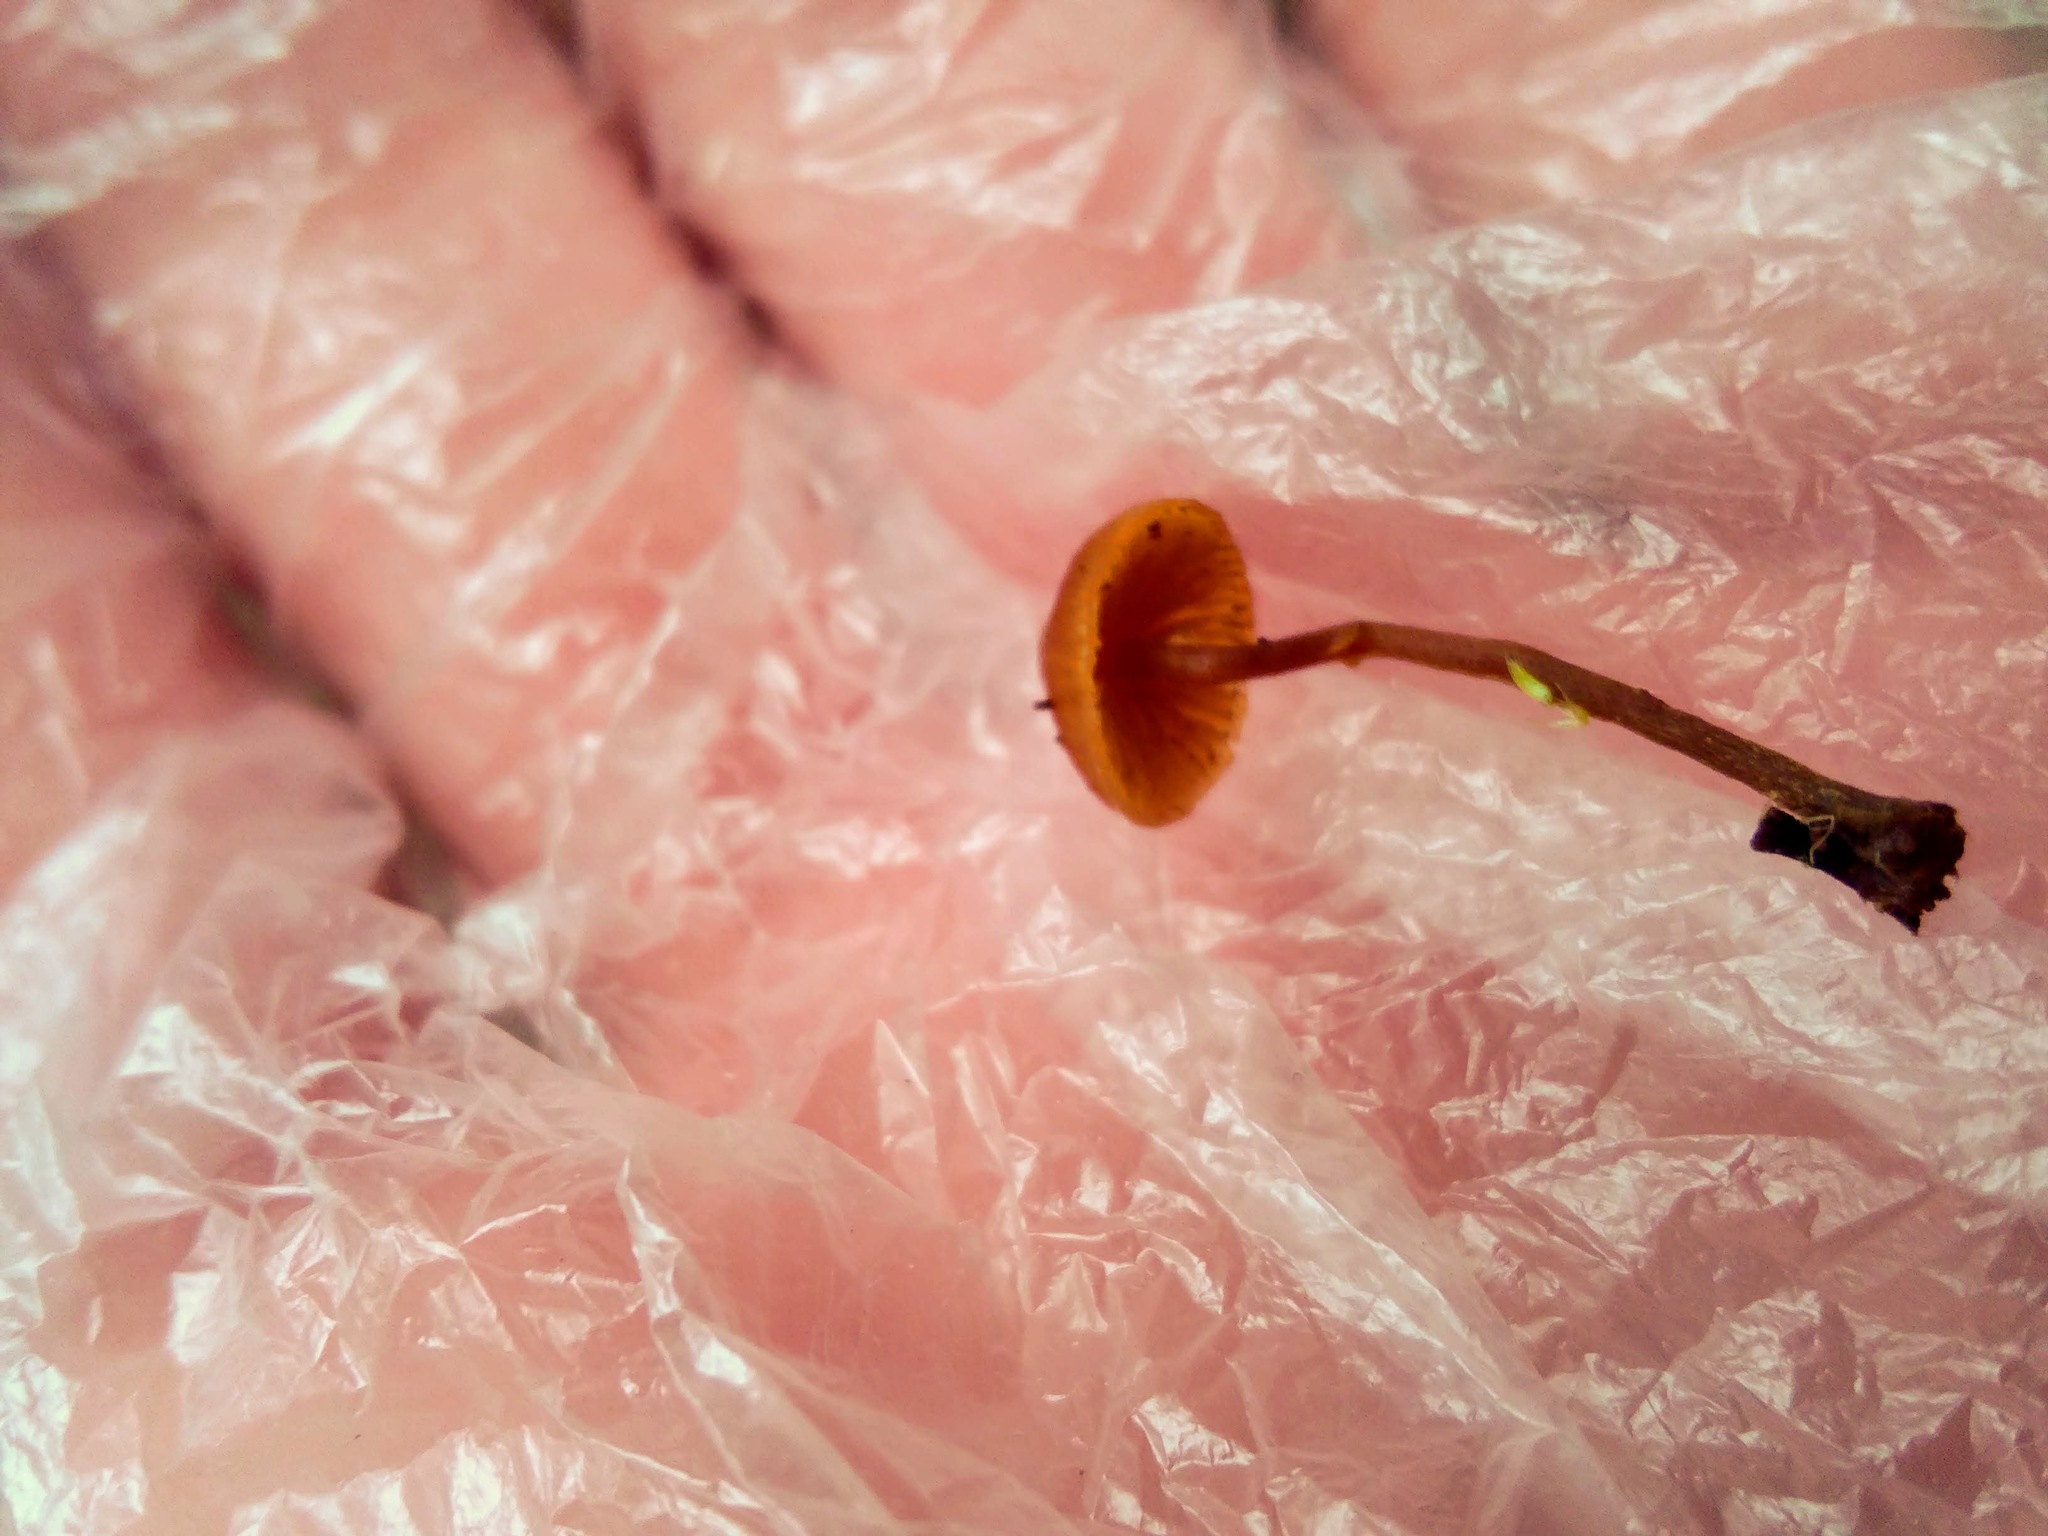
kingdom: Fungi
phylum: Basidiomycota
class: Agaricomycetes
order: Agaricales
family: Hymenogastraceae
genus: Galerina
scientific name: Galerina marginata
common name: Funeral bell
